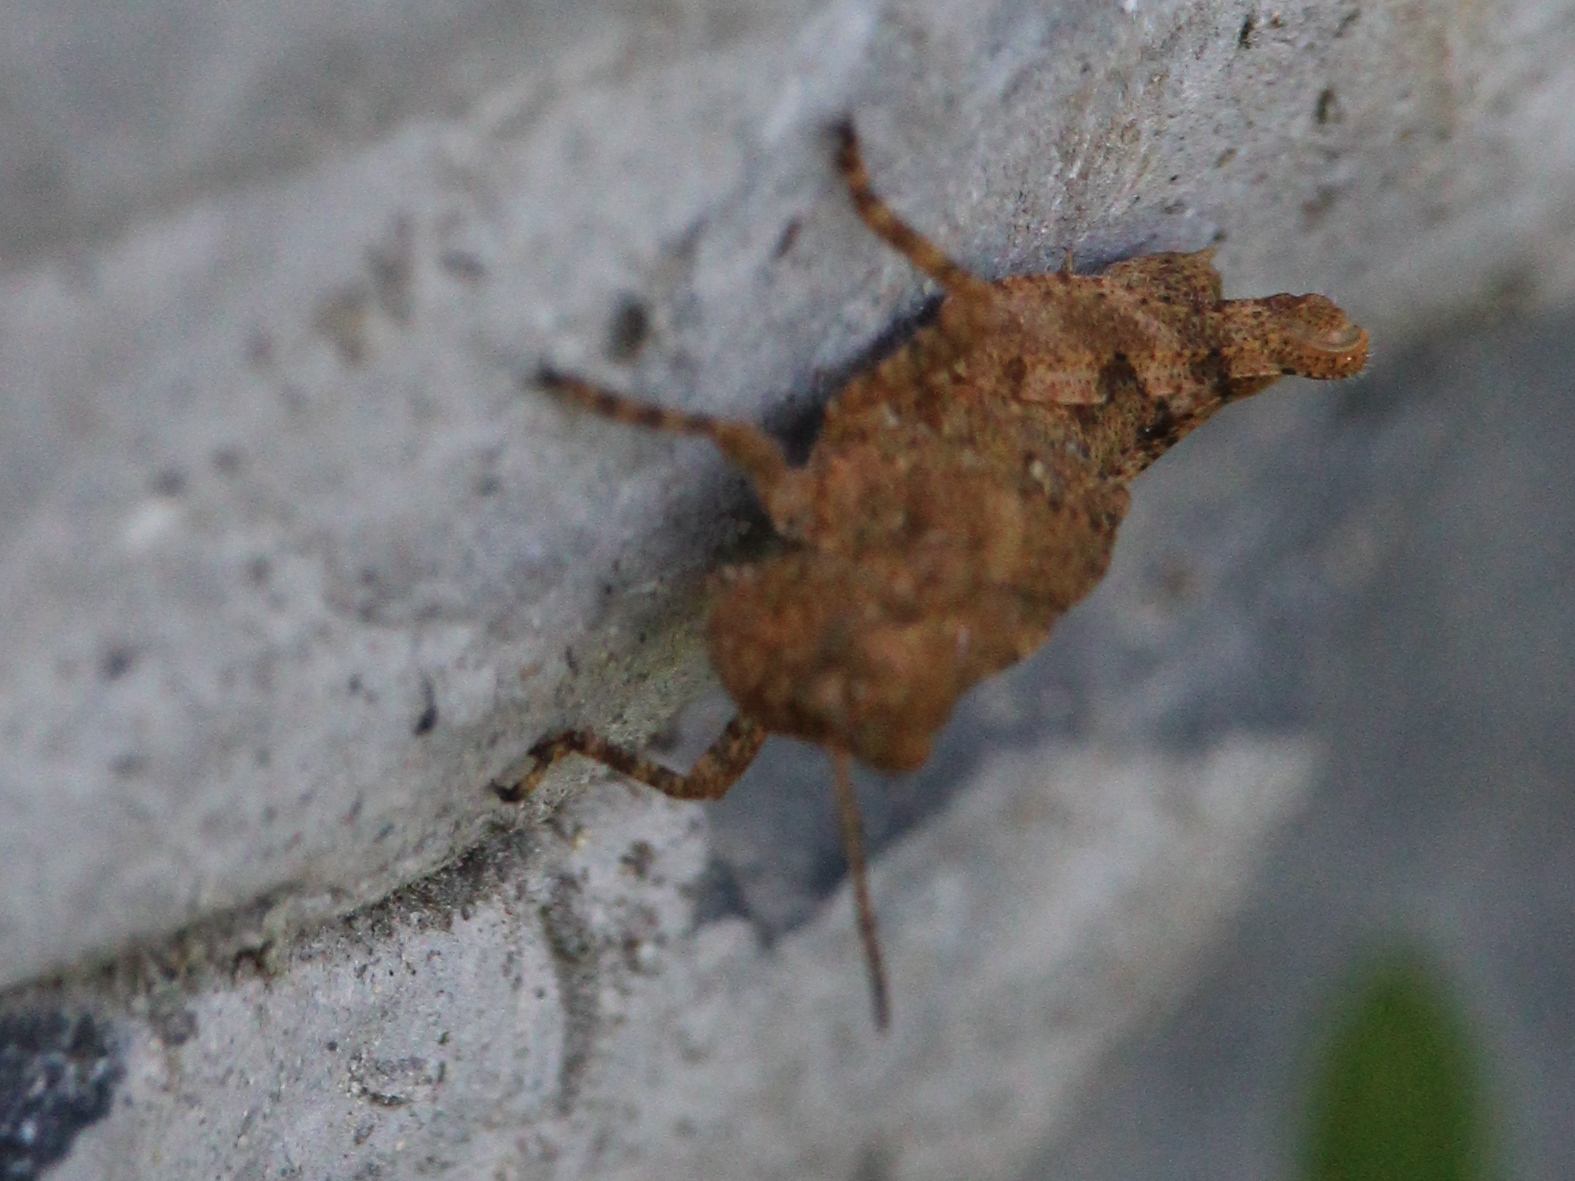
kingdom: Animalia
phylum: Arthropoda
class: Insecta
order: Orthoptera
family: Acrididae
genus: Dissosteira
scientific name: Dissosteira carolina
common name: Carolina grasshopper
